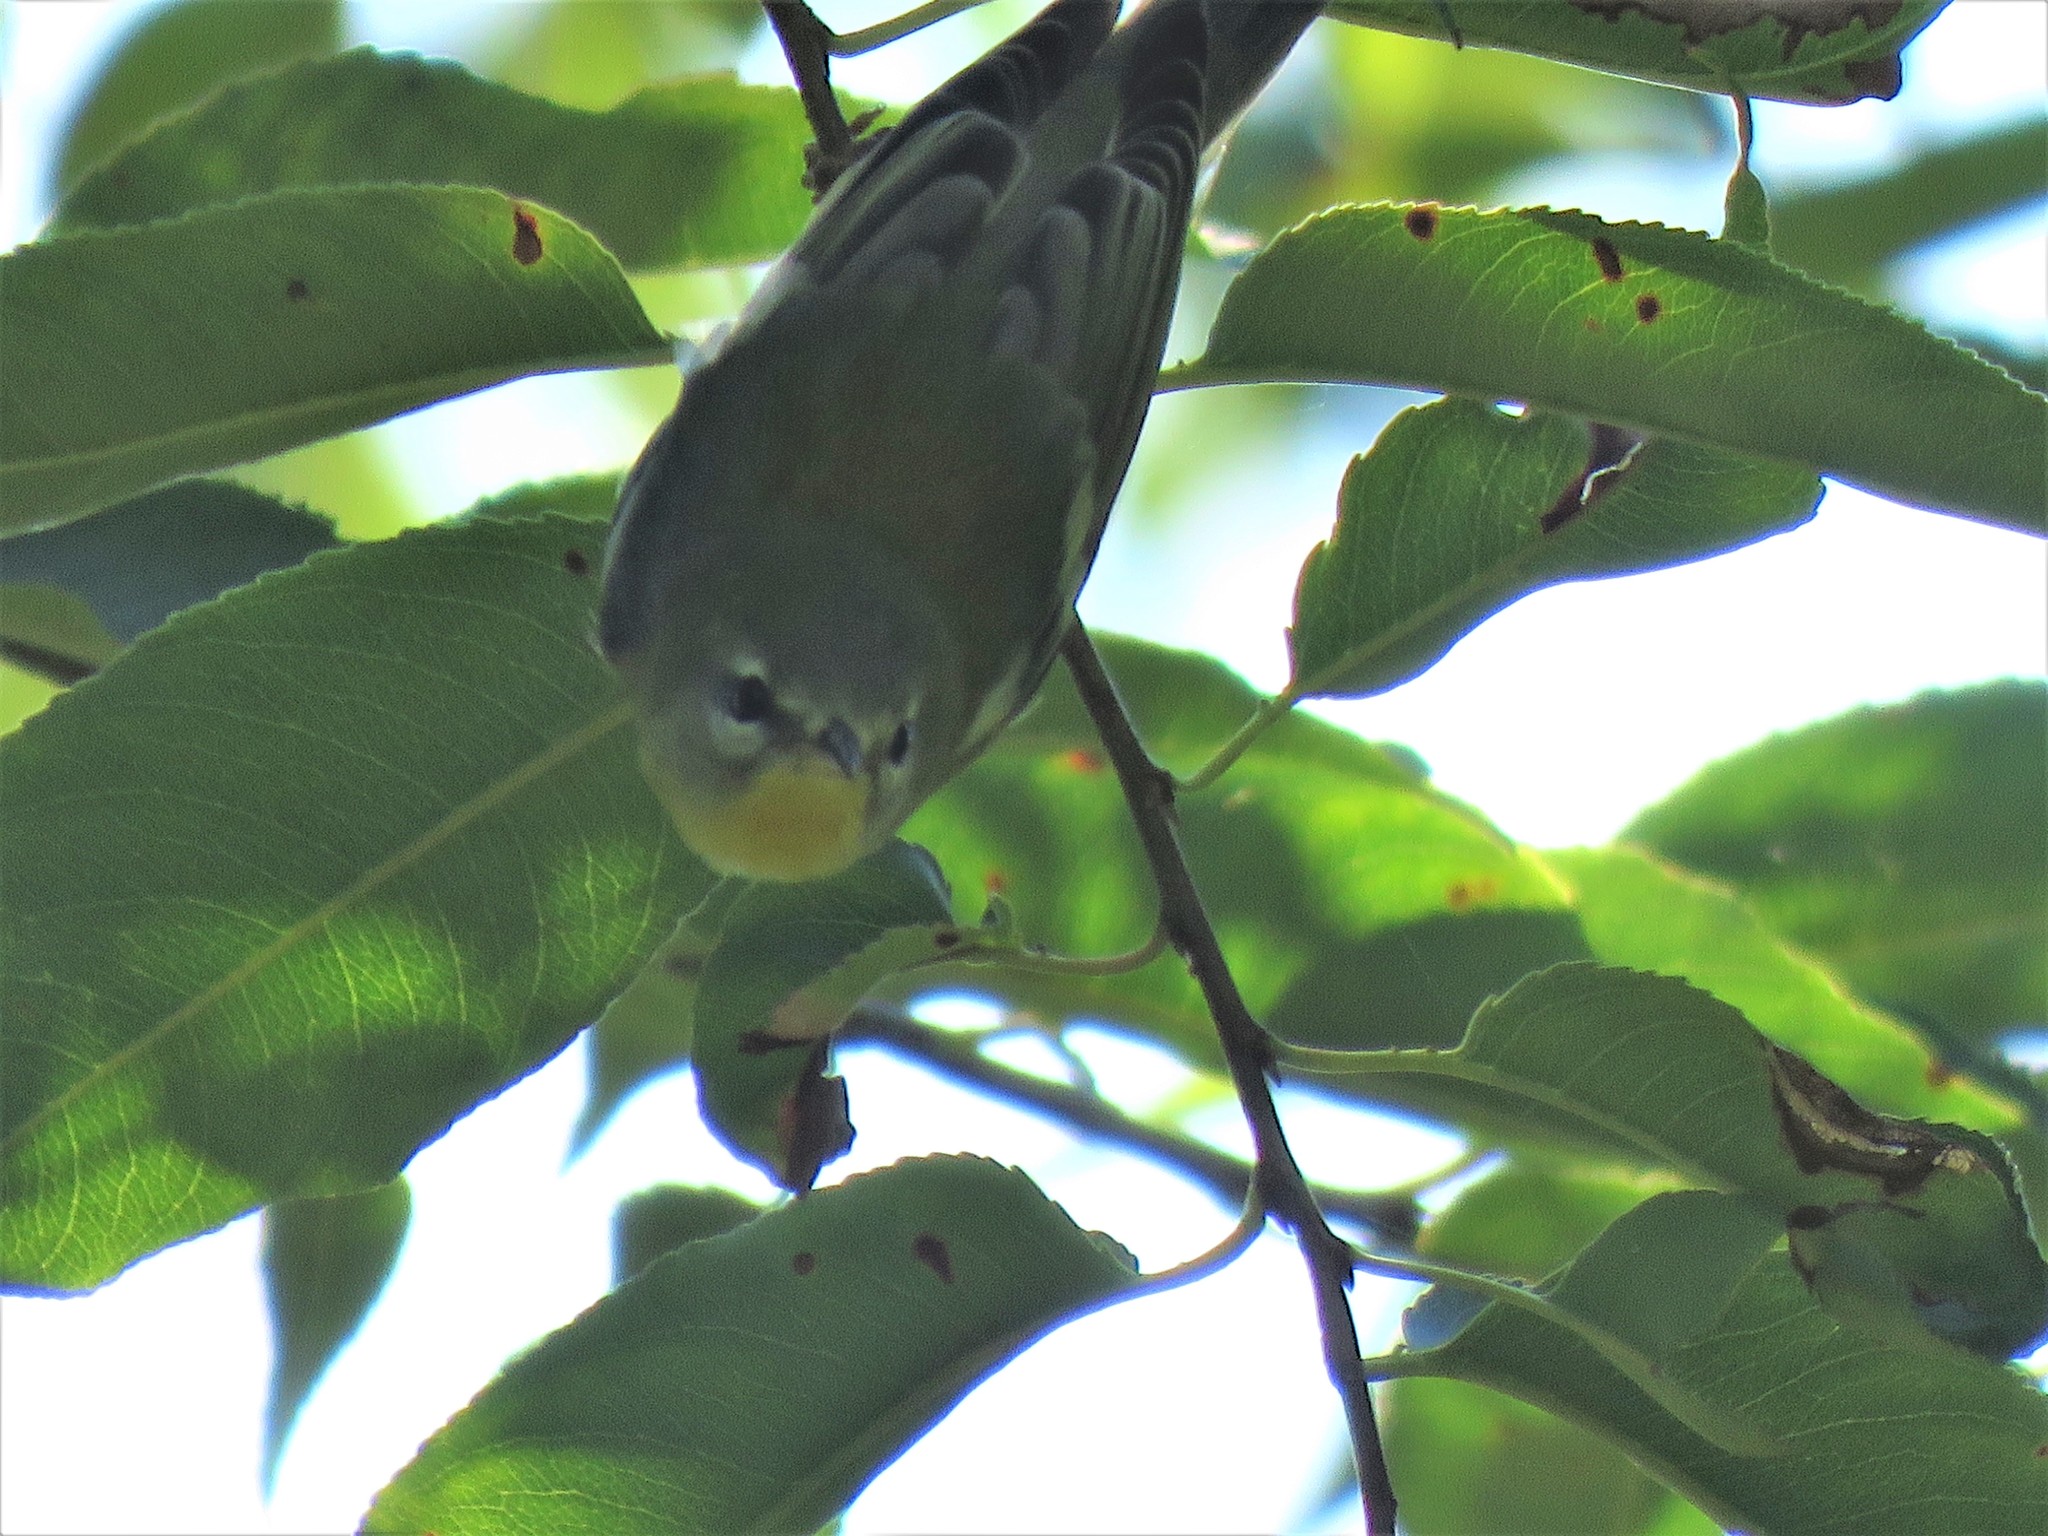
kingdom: Animalia
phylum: Chordata
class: Aves
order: Passeriformes
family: Parulidae
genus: Setophaga
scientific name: Setophaga americana
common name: Northern parula
